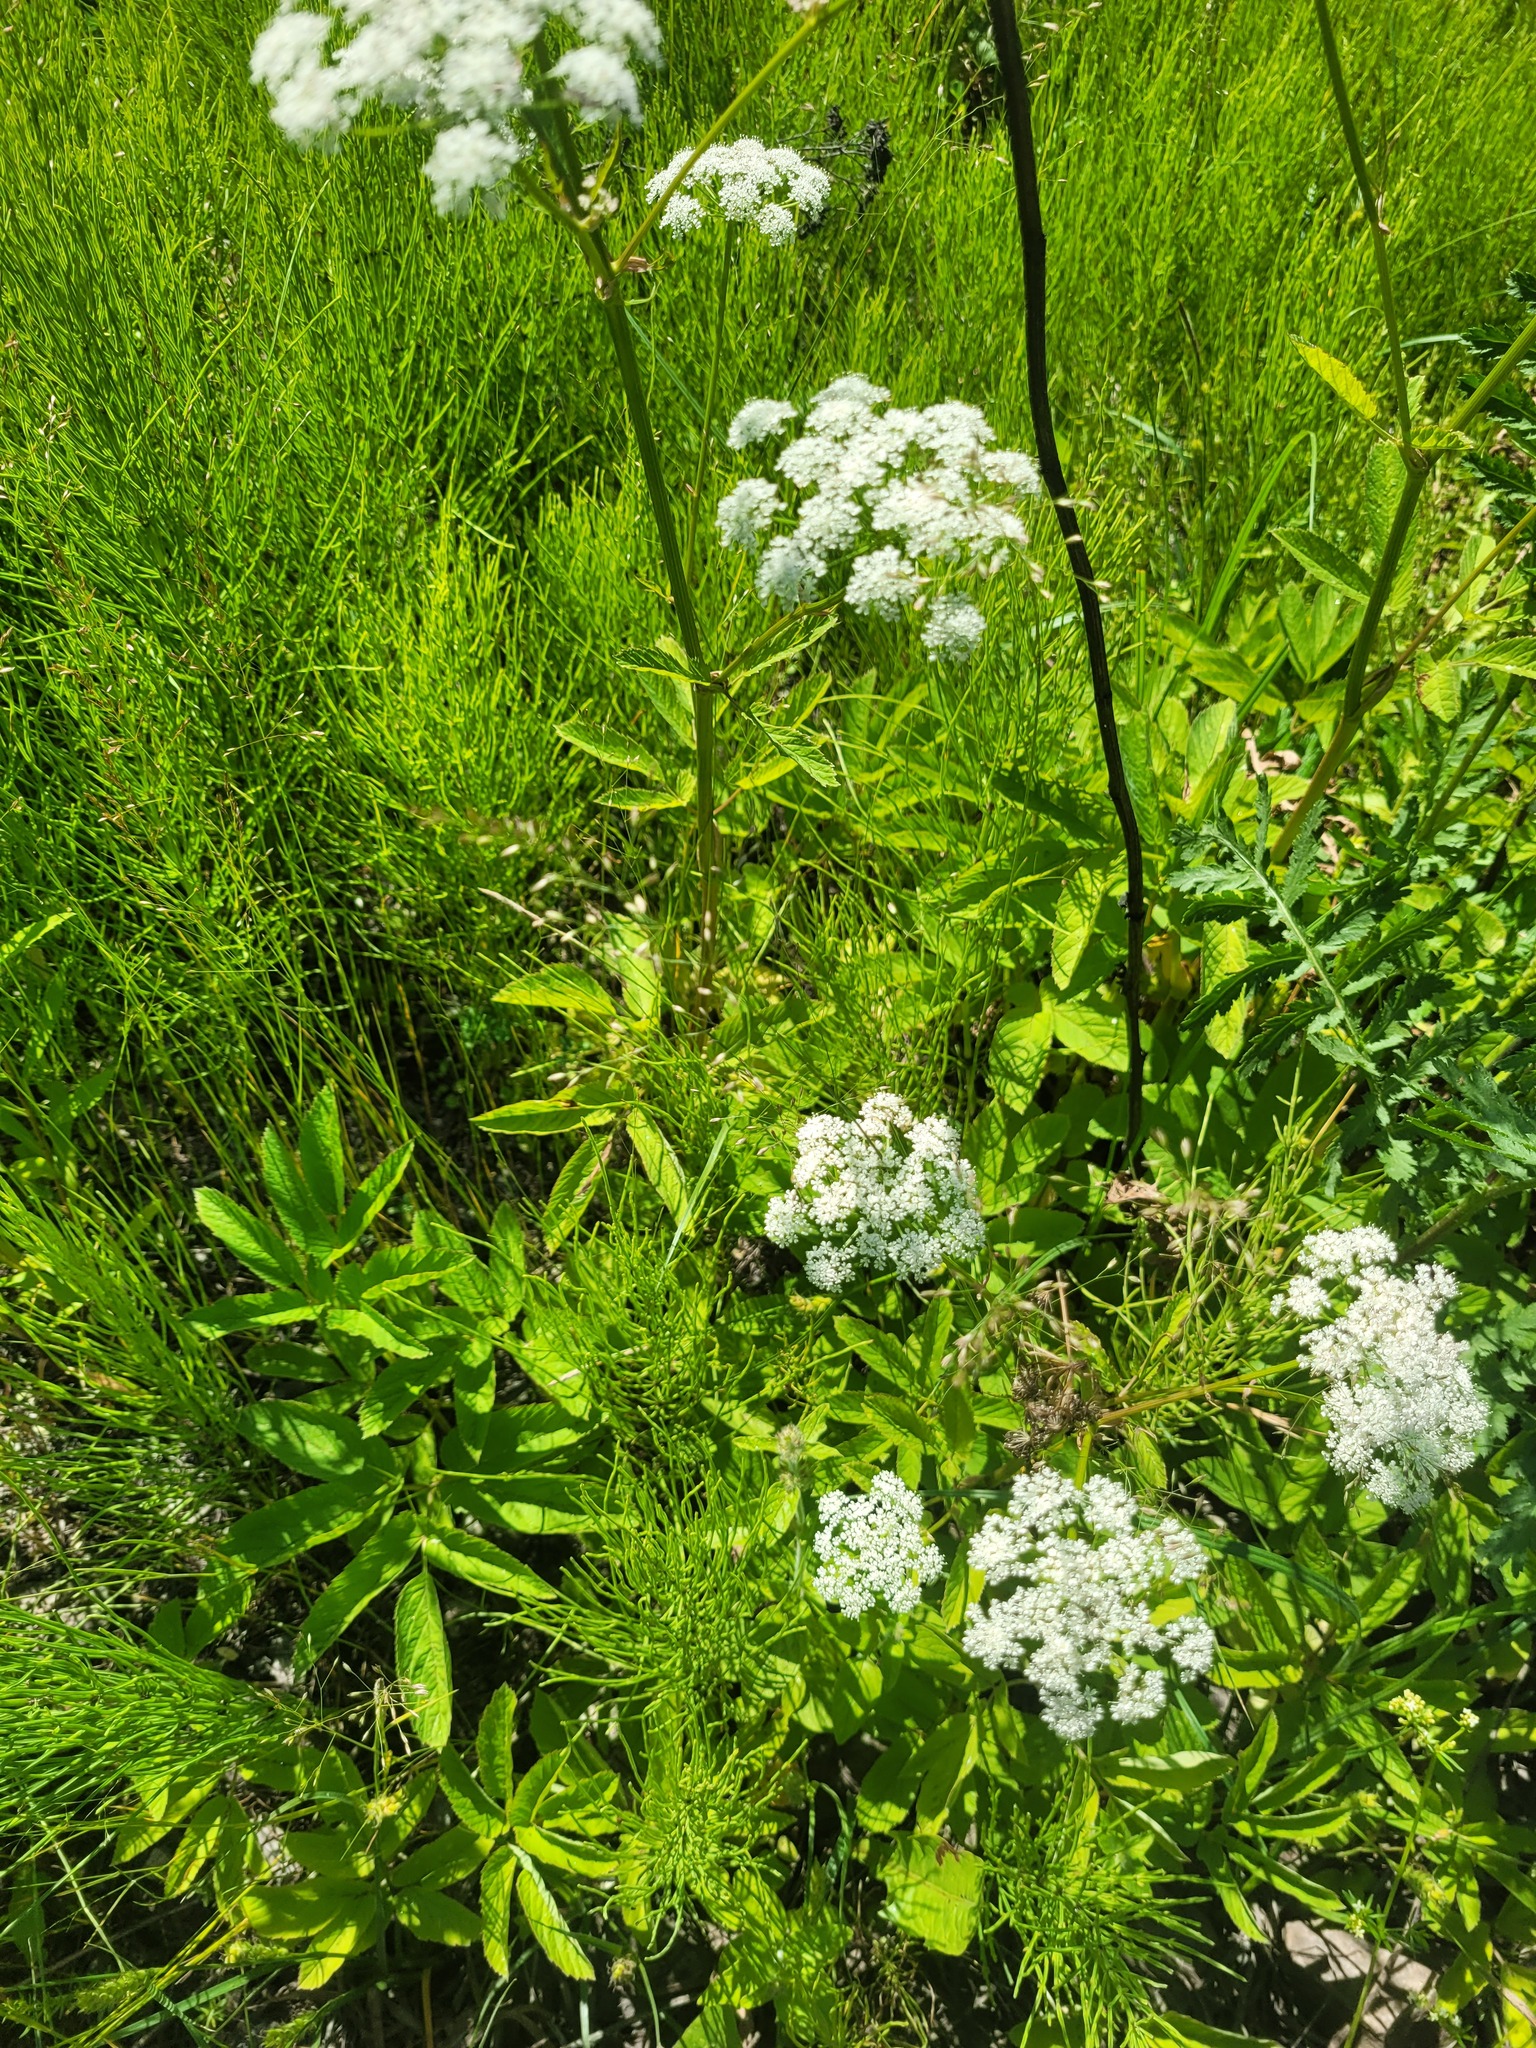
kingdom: Plantae
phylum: Tracheophyta
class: Magnoliopsida
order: Apiales
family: Apiaceae
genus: Aegopodium
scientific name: Aegopodium podagraria
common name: Ground-elder
